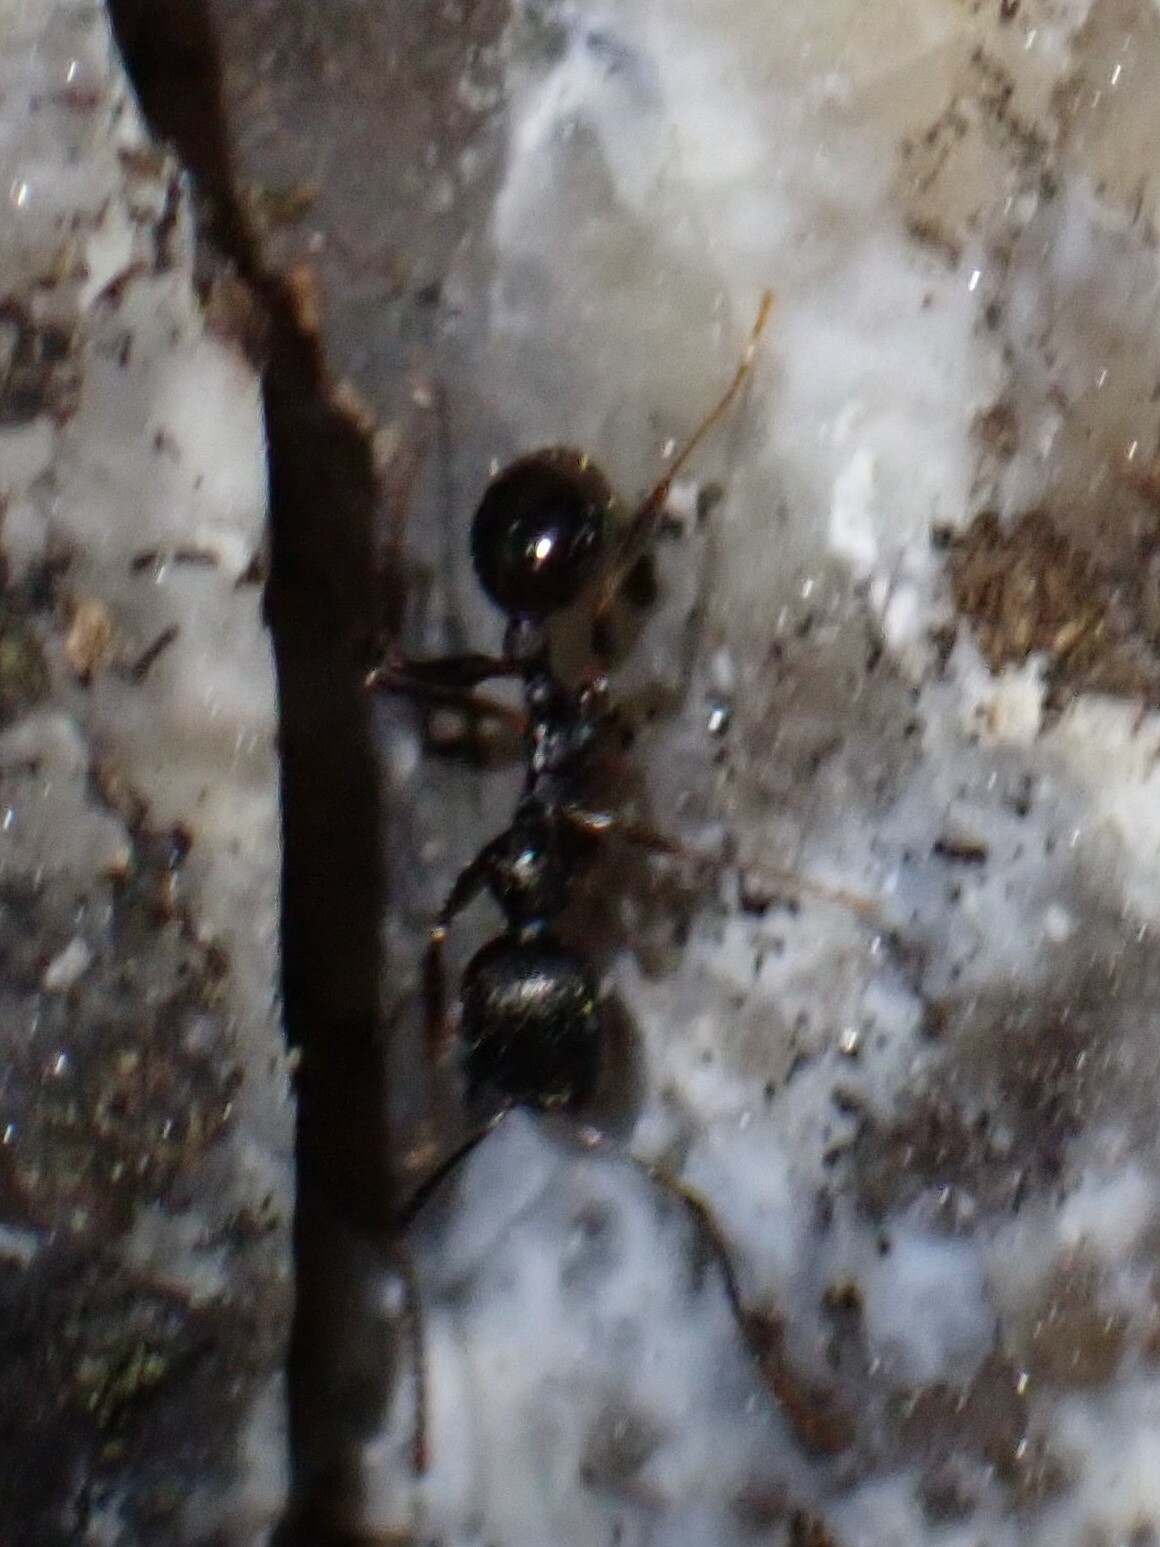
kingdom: Animalia
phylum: Arthropoda
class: Insecta
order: Hymenoptera
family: Formicidae
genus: Aphaenogaster
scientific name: Aphaenogaster
